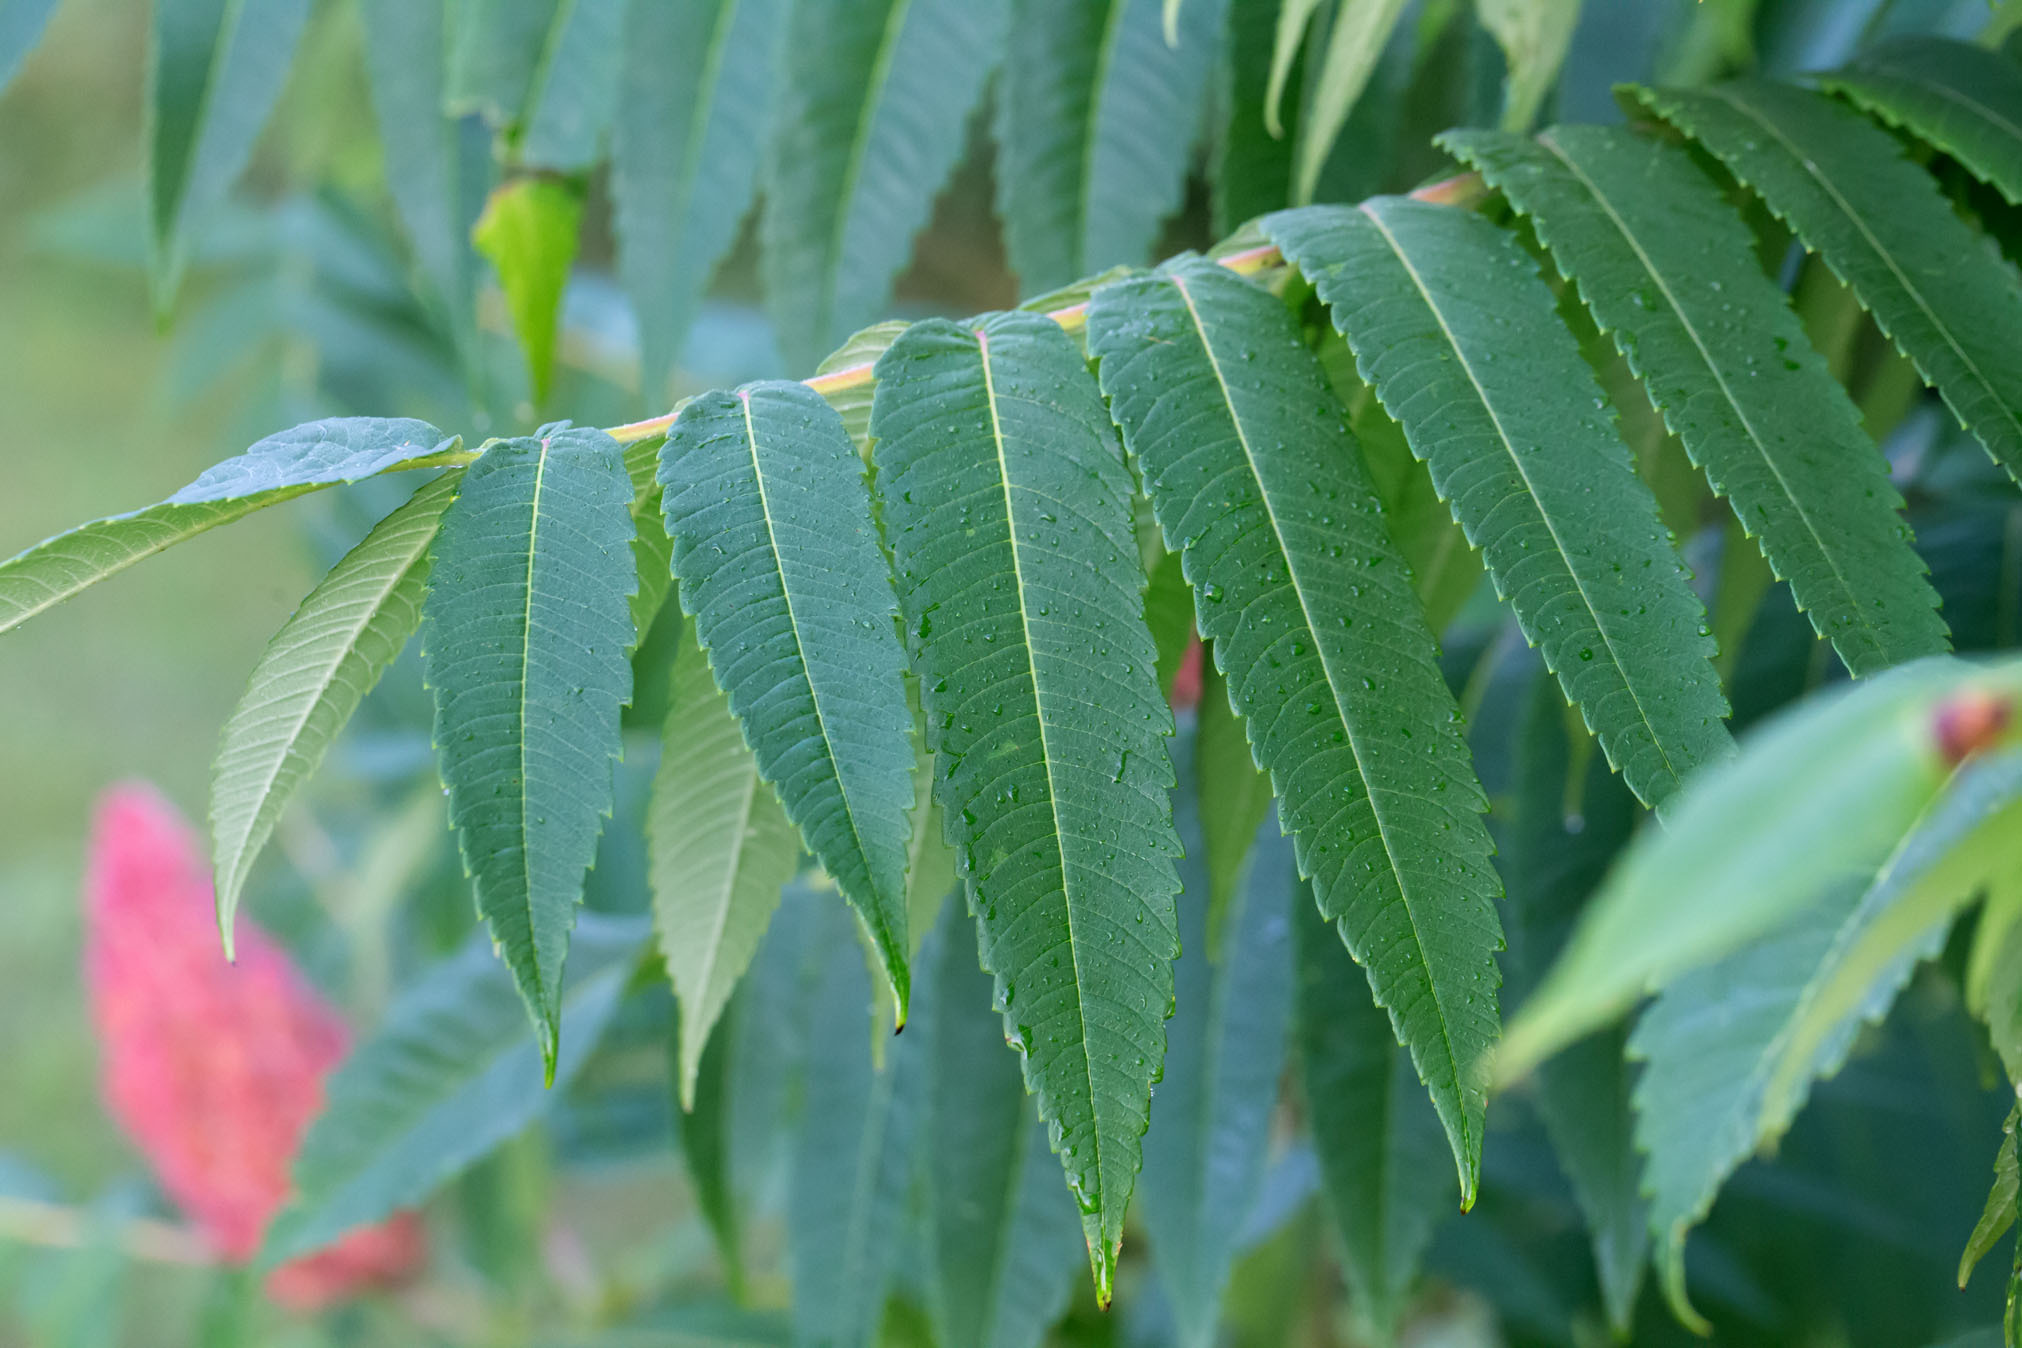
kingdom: Plantae
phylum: Tracheophyta
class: Magnoliopsida
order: Sapindales
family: Anacardiaceae
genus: Rhus
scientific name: Rhus typhina
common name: Staghorn sumac
